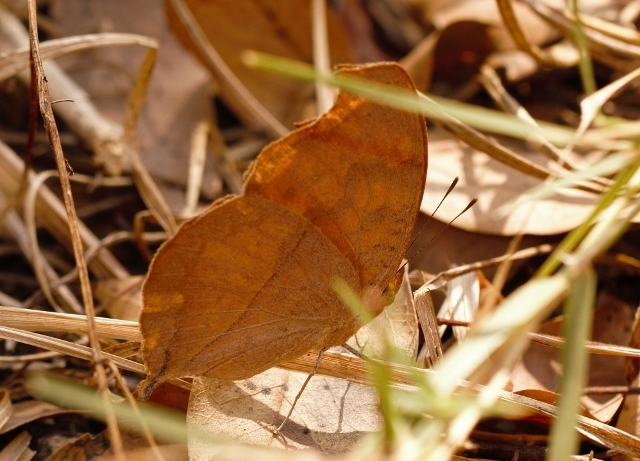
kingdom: Animalia
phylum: Arthropoda
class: Insecta
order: Lepidoptera
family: Nymphalidae
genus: Junonia
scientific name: Junonia antilope
